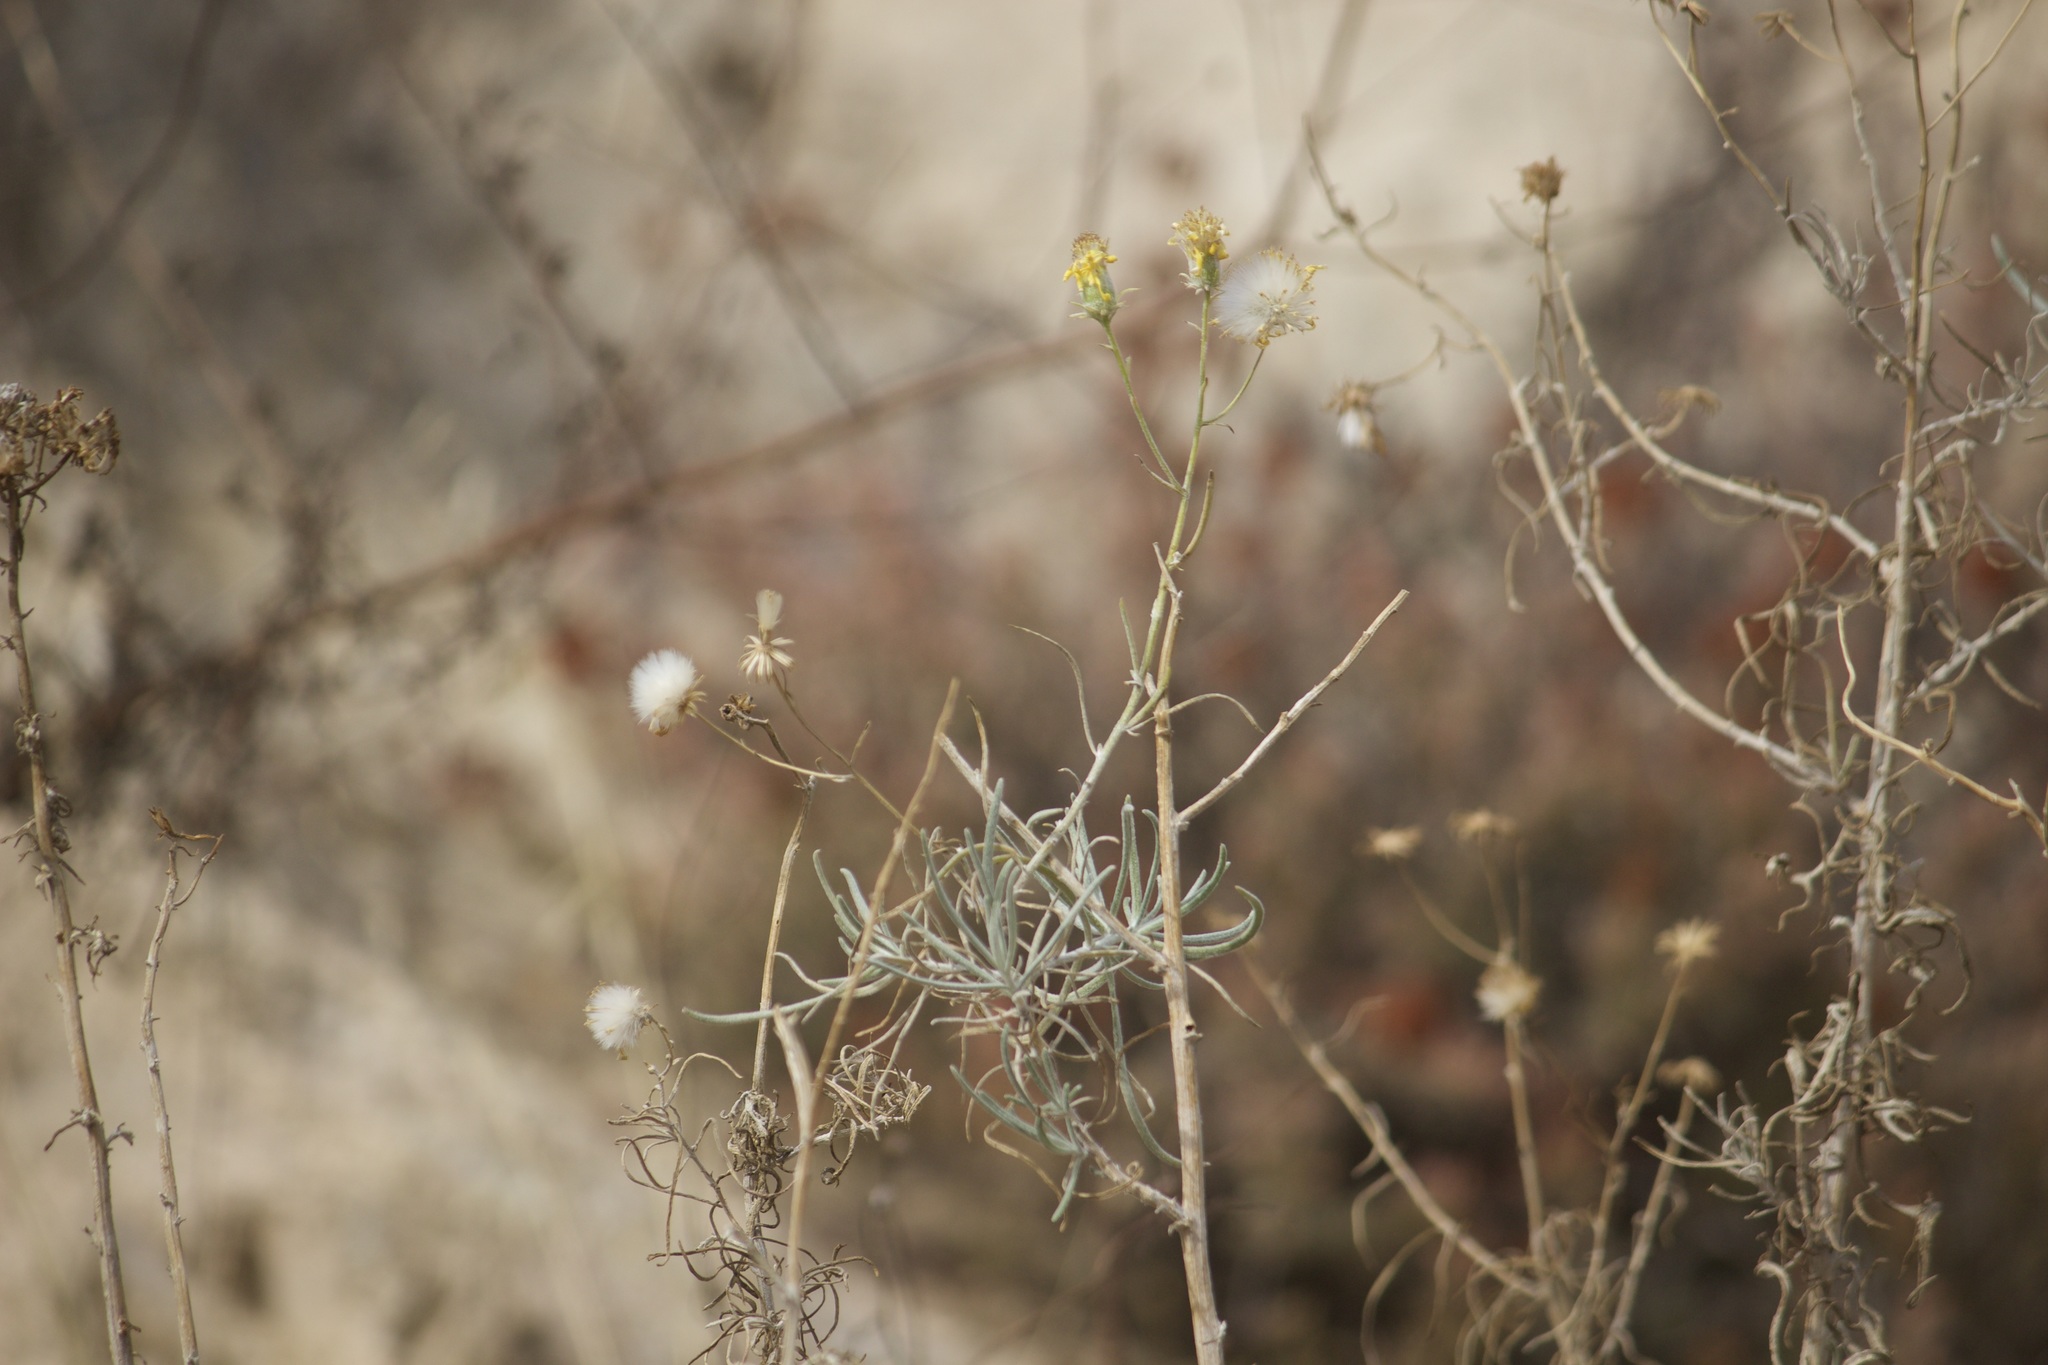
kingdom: Plantae
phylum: Tracheophyta
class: Magnoliopsida
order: Asterales
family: Asteraceae
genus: Senecio
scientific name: Senecio flaccidus
